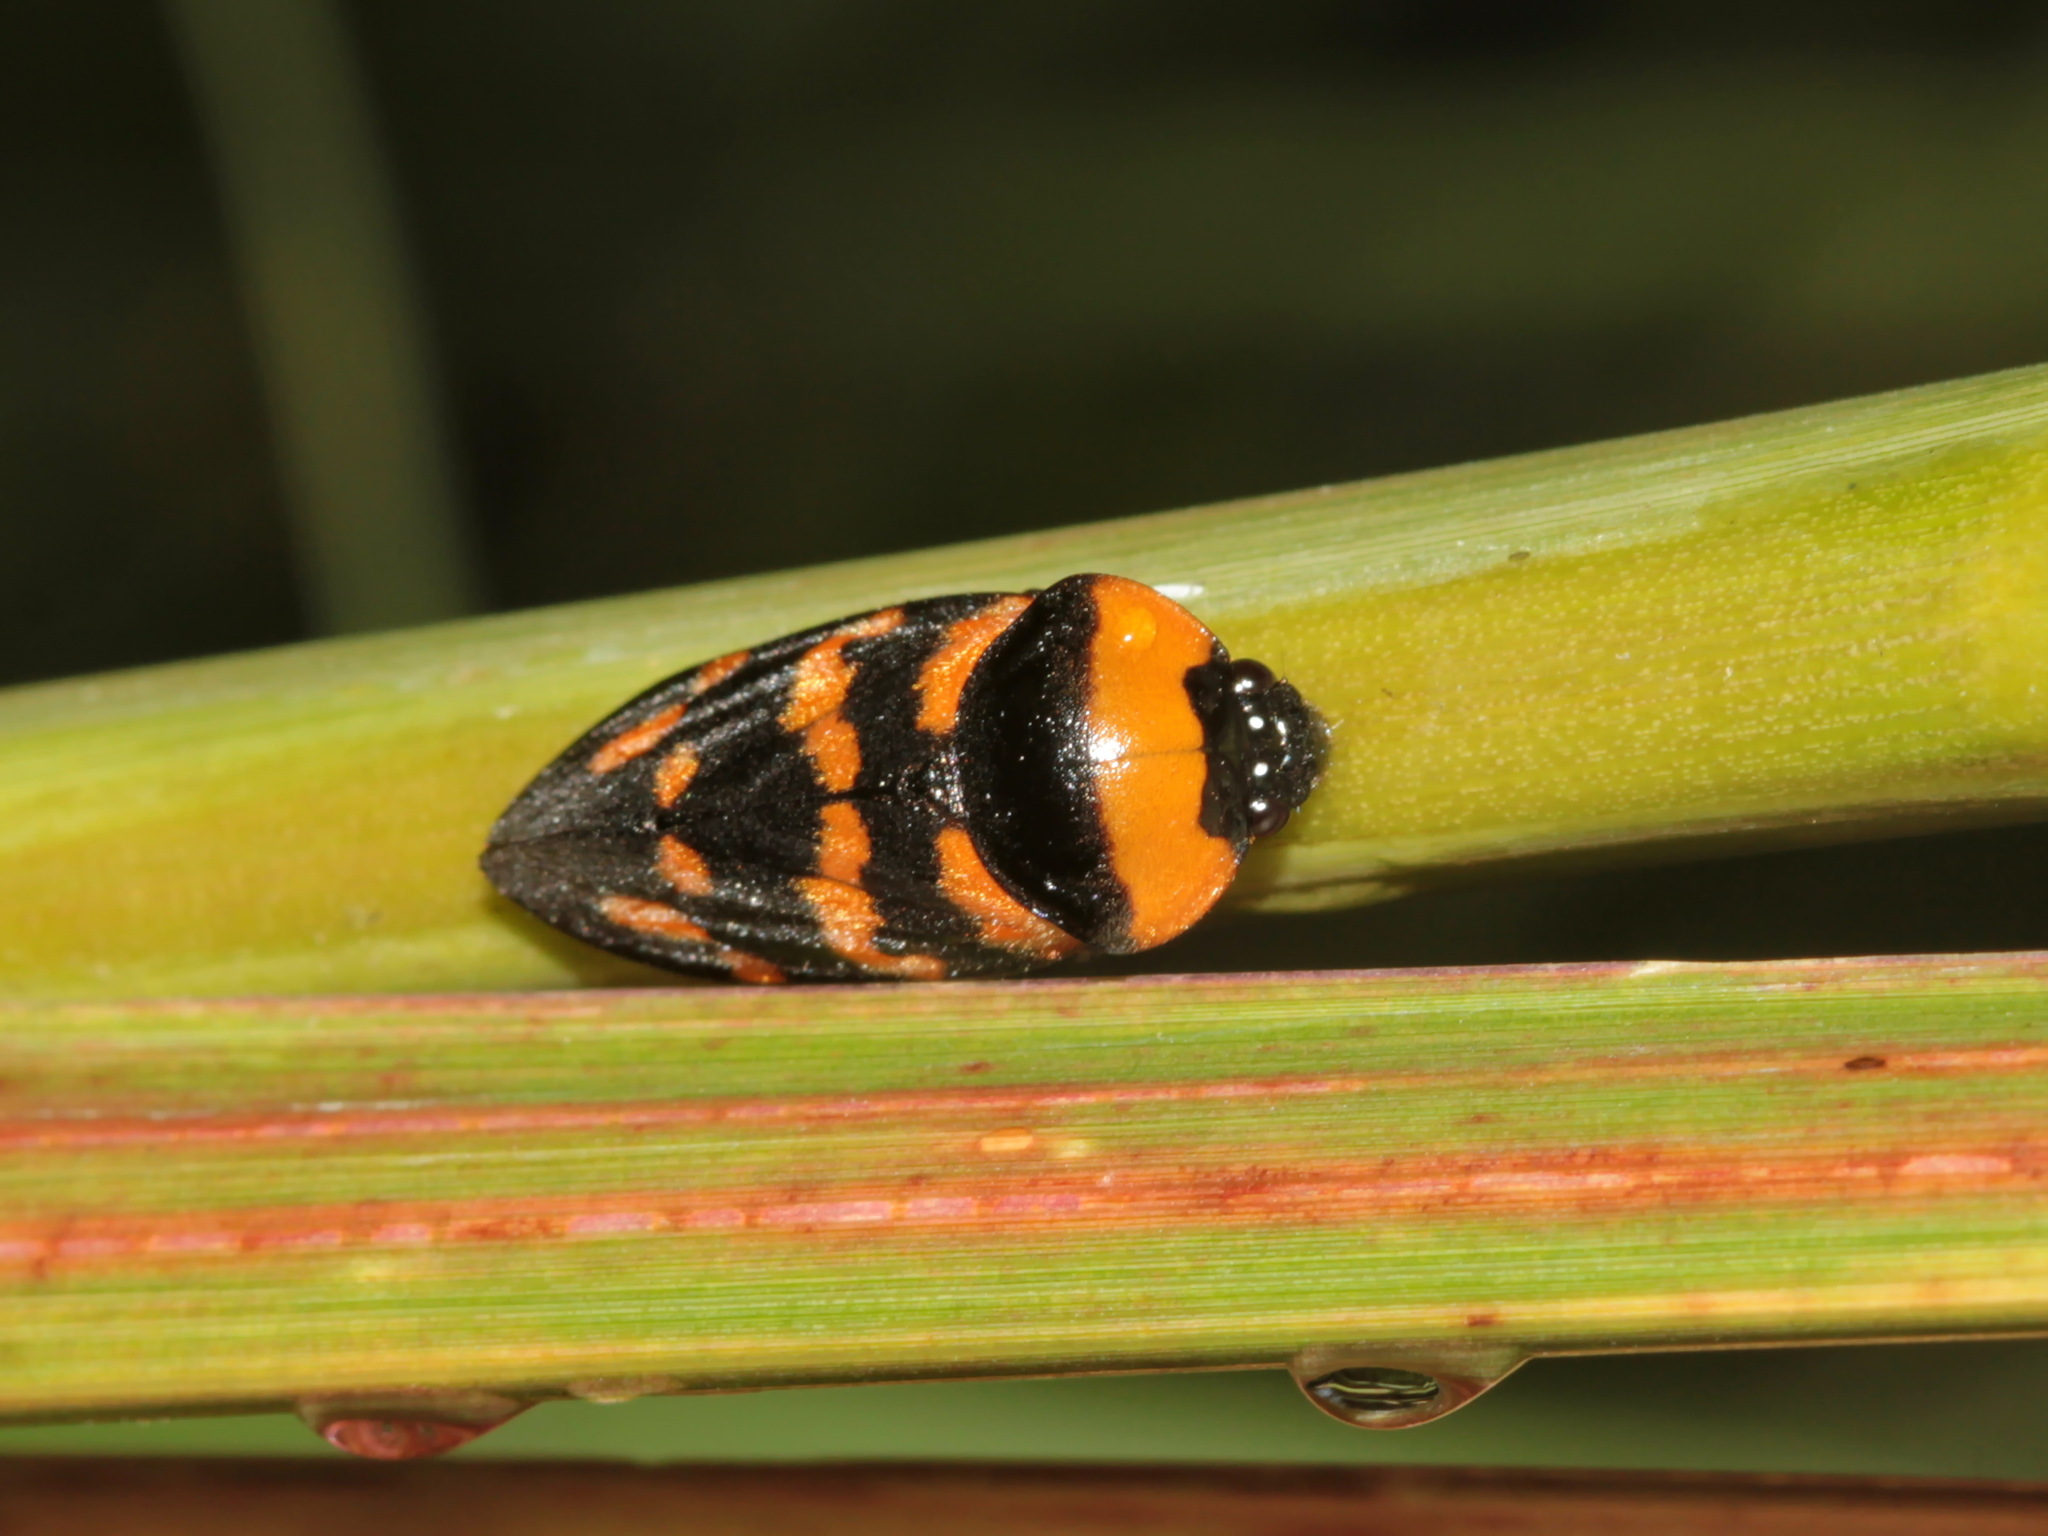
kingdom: Animalia
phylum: Arthropoda
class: Insecta
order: Hemiptera
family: Cercopidae
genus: Cosmoscarta
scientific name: Cosmoscarta dimidiata
